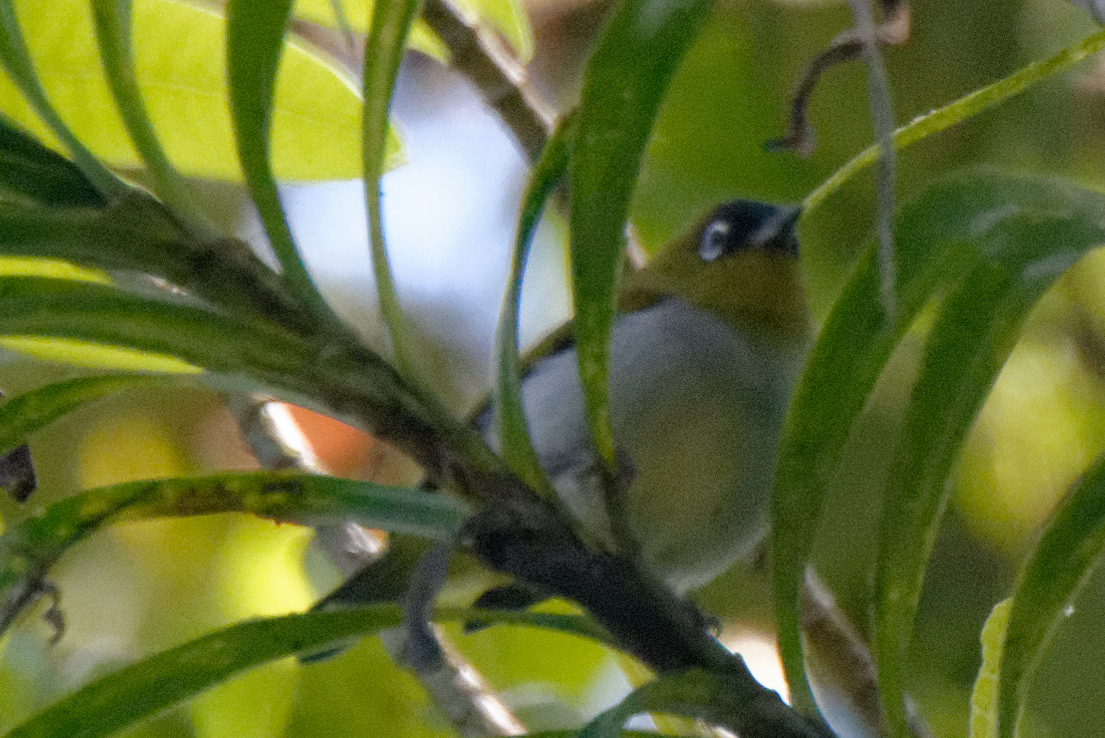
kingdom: Animalia
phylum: Chordata
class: Aves
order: Passeriformes
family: Zosteropidae
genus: Zosterops
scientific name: Zosterops atrifrons
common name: Black-crowned white-eye
